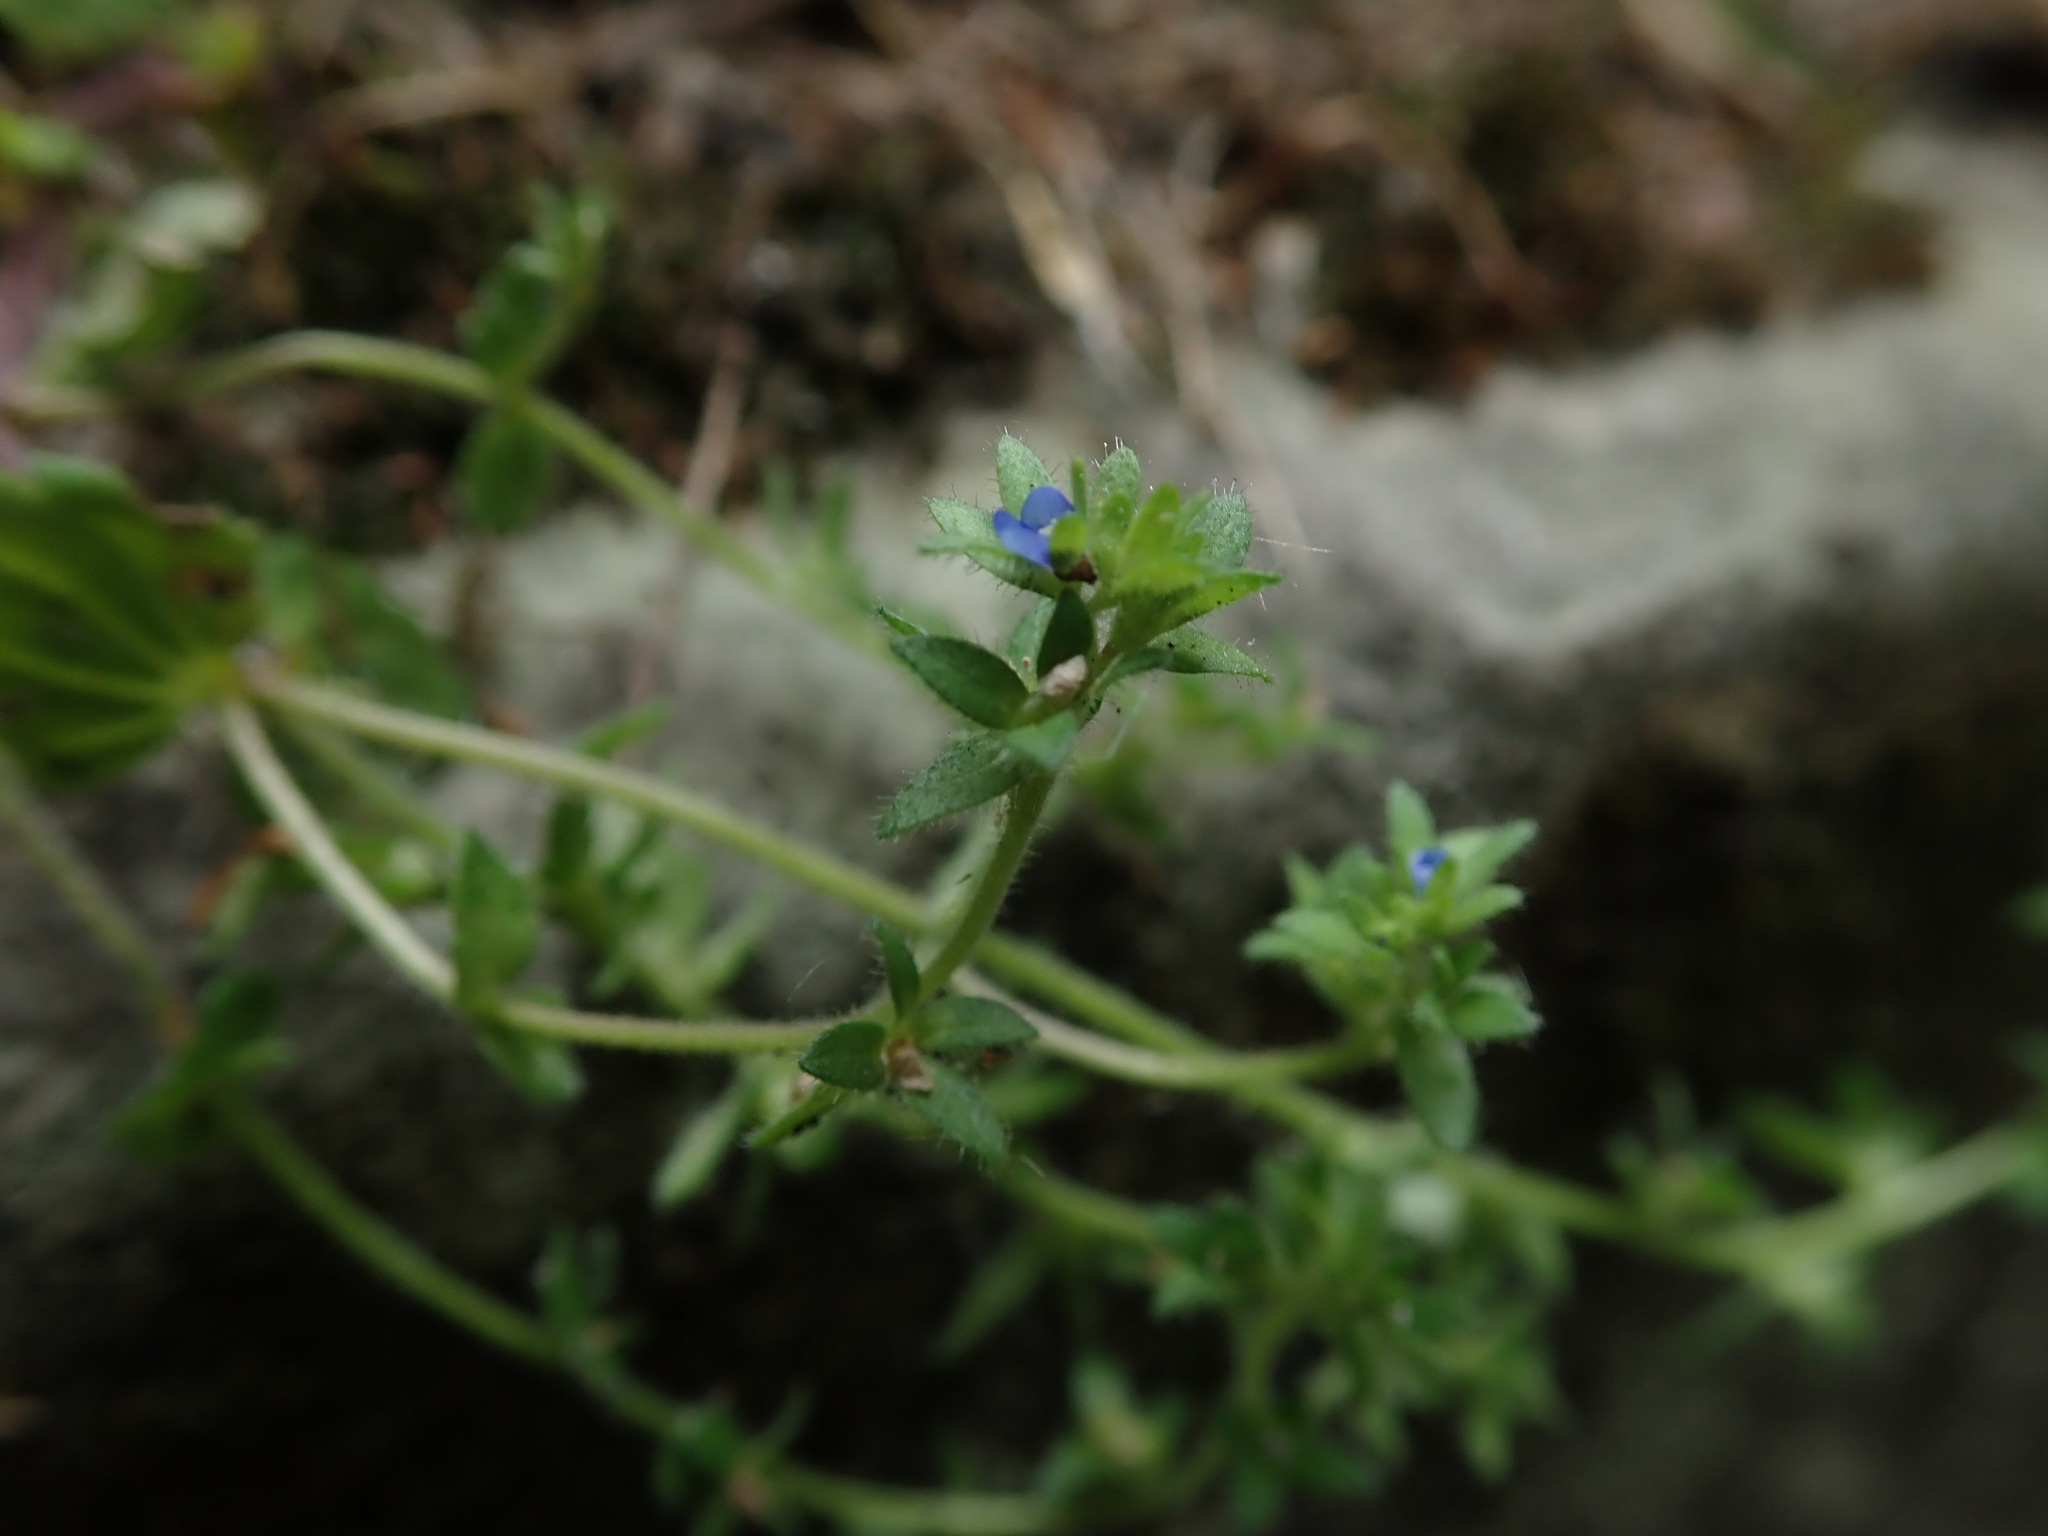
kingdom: Plantae
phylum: Tracheophyta
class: Magnoliopsida
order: Lamiales
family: Plantaginaceae
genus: Veronica
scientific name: Veronica arvensis
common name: Corn speedwell
